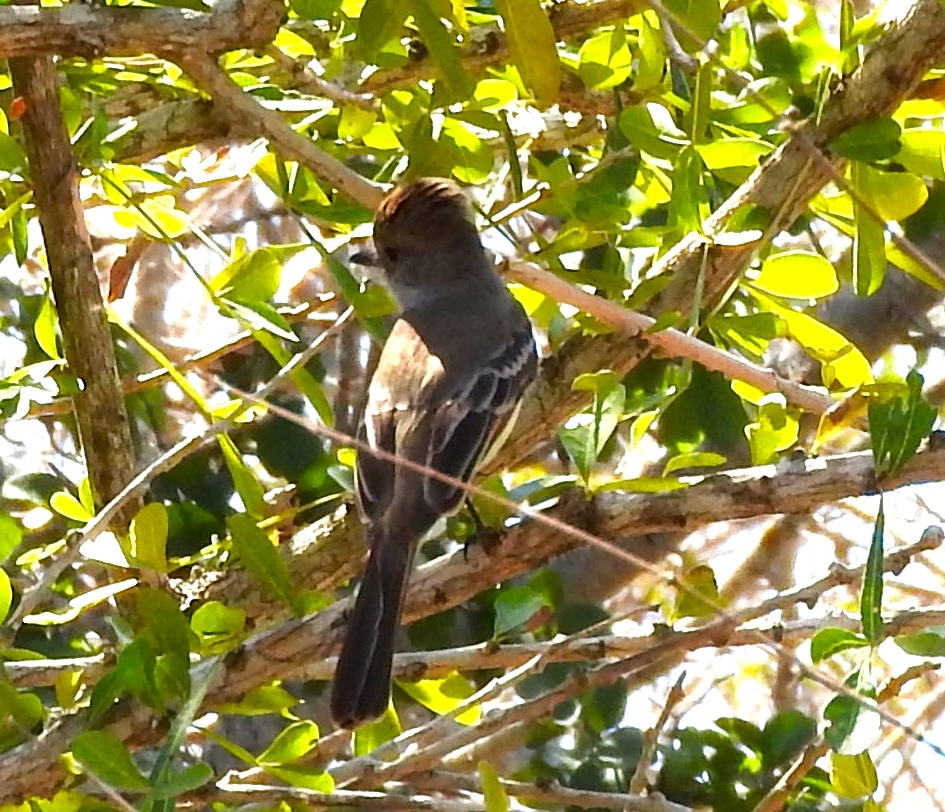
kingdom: Animalia
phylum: Chordata
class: Aves
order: Passeriformes
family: Tyrannidae
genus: Myiarchus
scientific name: Myiarchus
